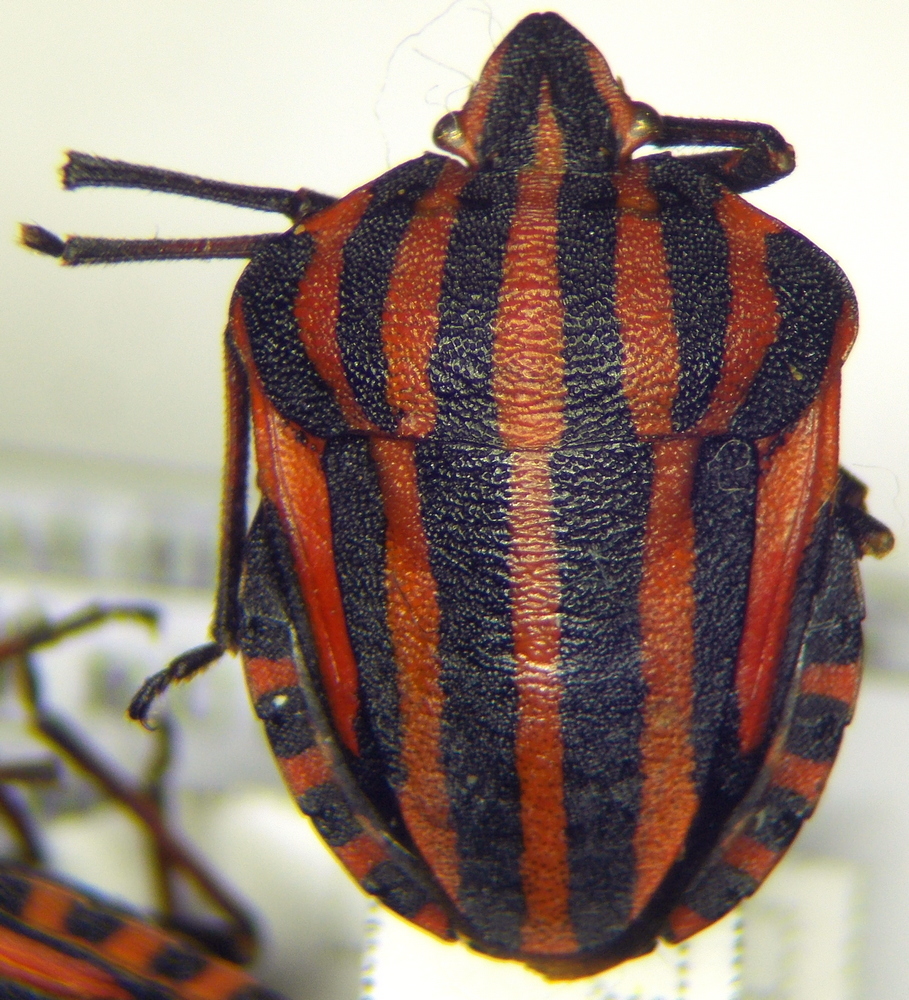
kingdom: Animalia
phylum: Arthropoda
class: Insecta
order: Hemiptera
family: Pentatomidae
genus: Graphosoma
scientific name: Graphosoma italicum
